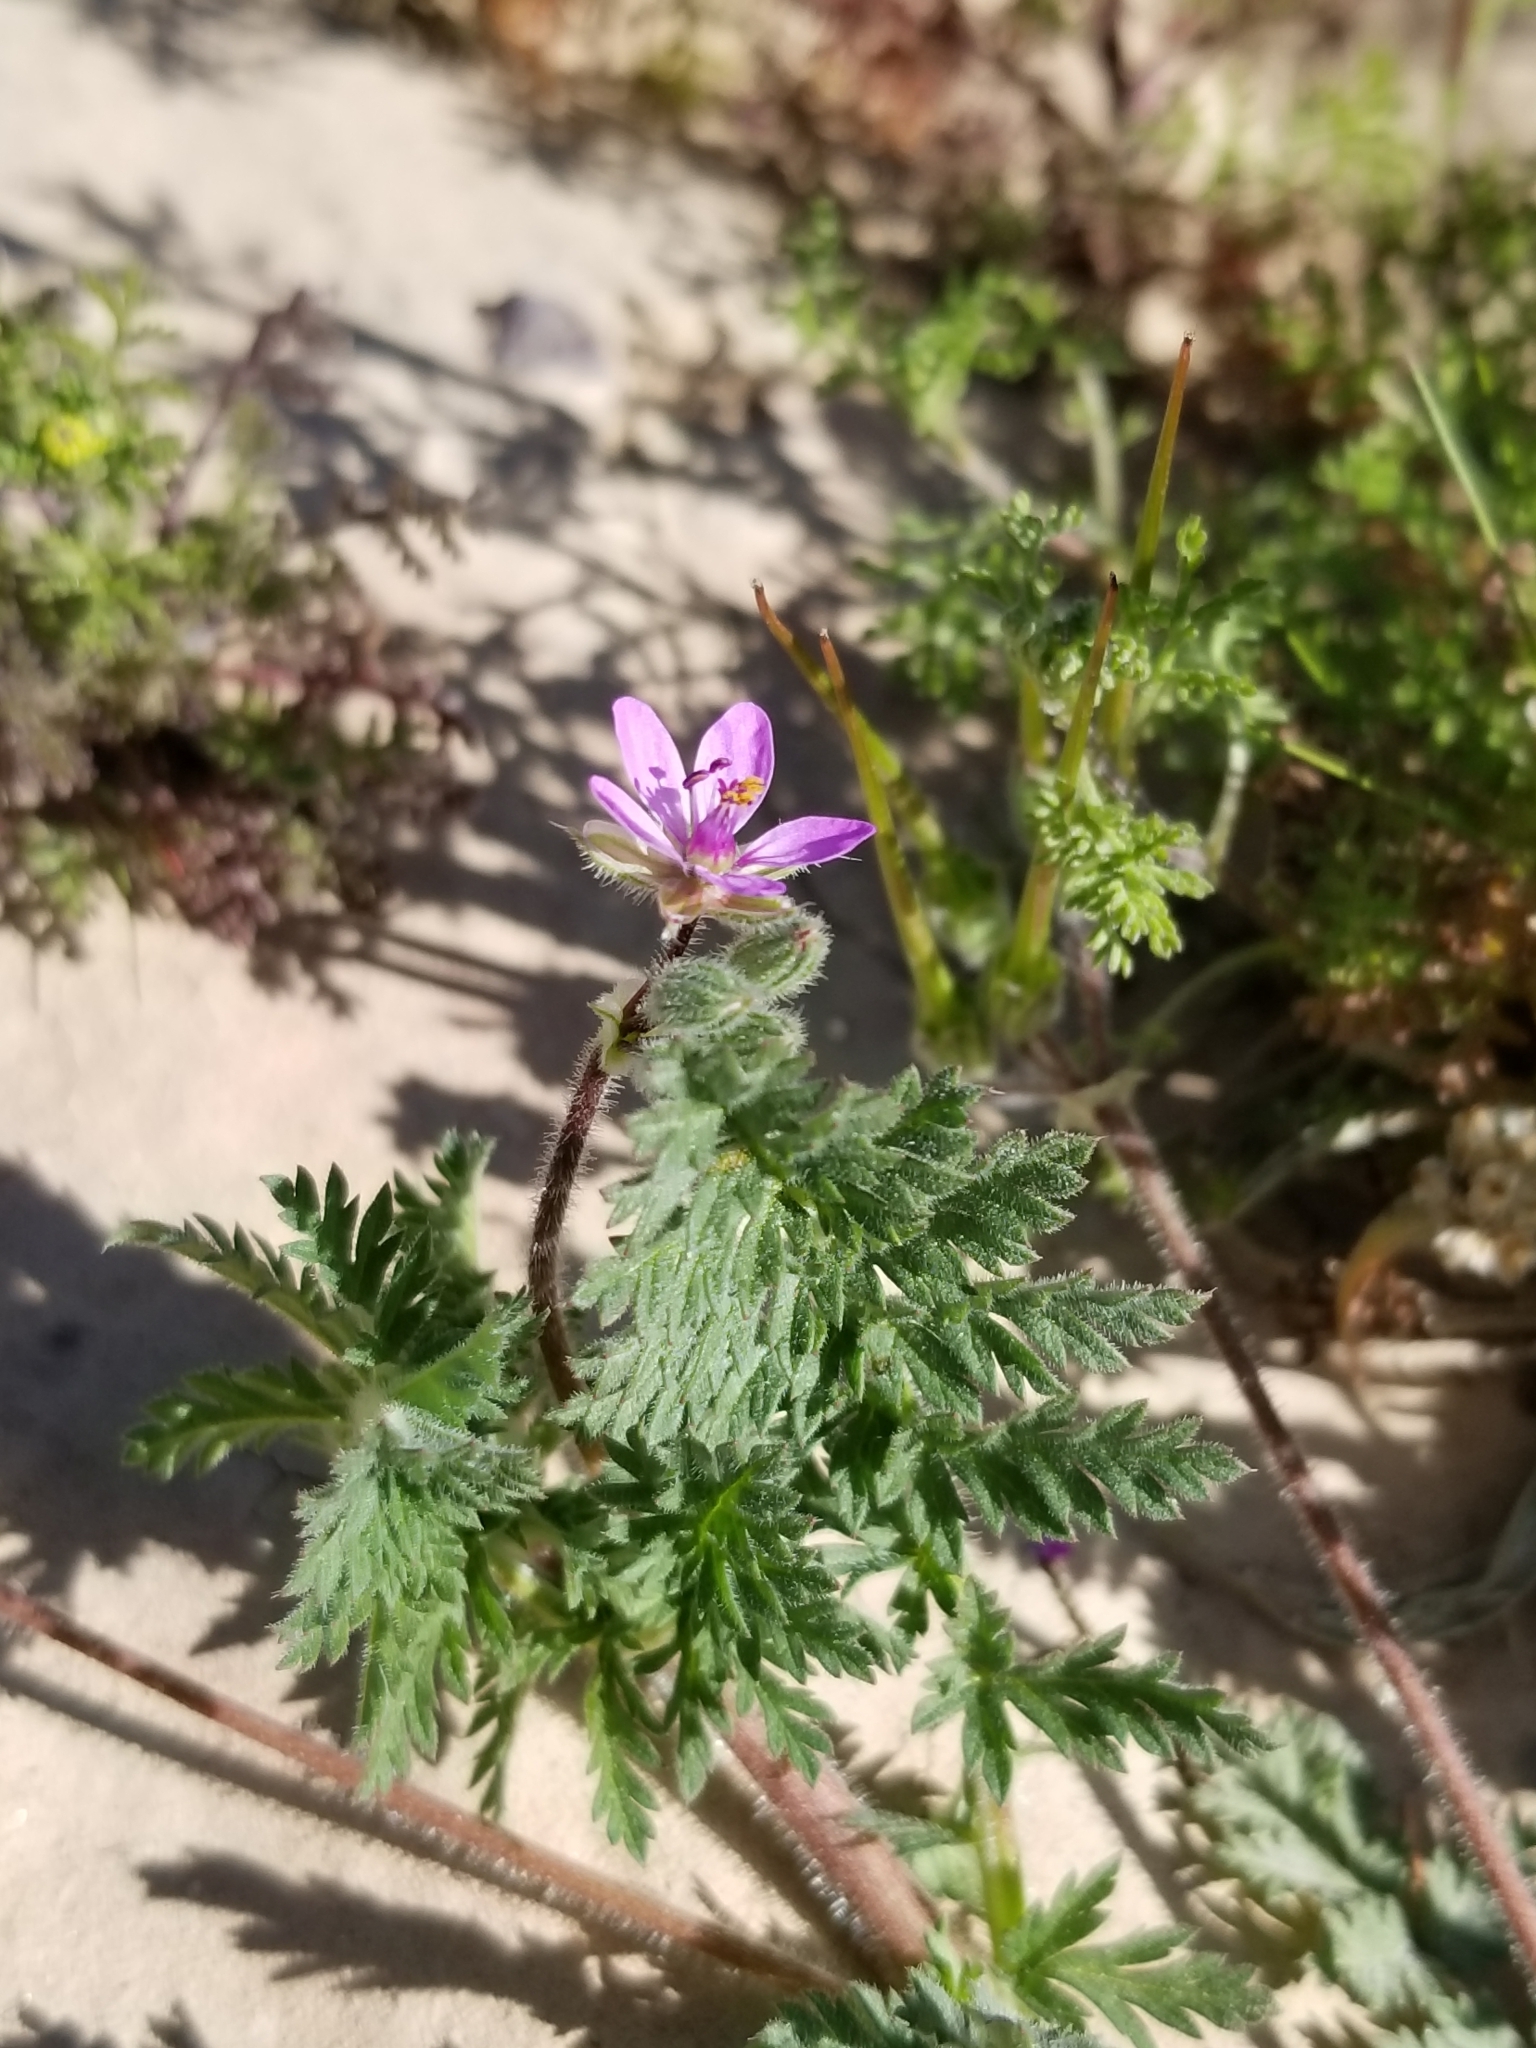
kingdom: Plantae
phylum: Tracheophyta
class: Magnoliopsida
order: Geraniales
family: Geraniaceae
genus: Erodium
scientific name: Erodium cicutarium
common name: Common stork's-bill
